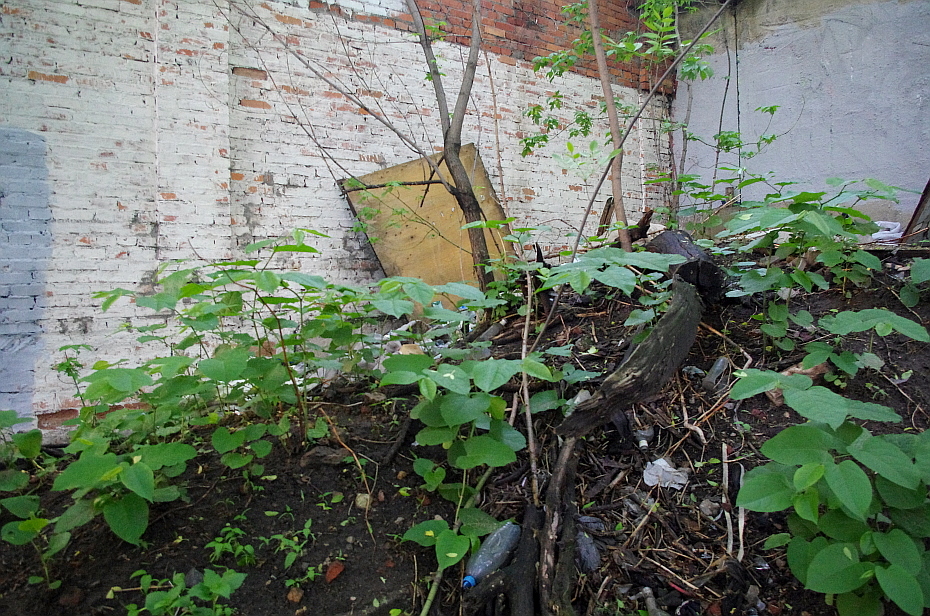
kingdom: Plantae
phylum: Tracheophyta
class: Magnoliopsida
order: Caryophyllales
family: Polygonaceae
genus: Reynoutria
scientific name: Reynoutria bohemica
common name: Bohemian knotweed
